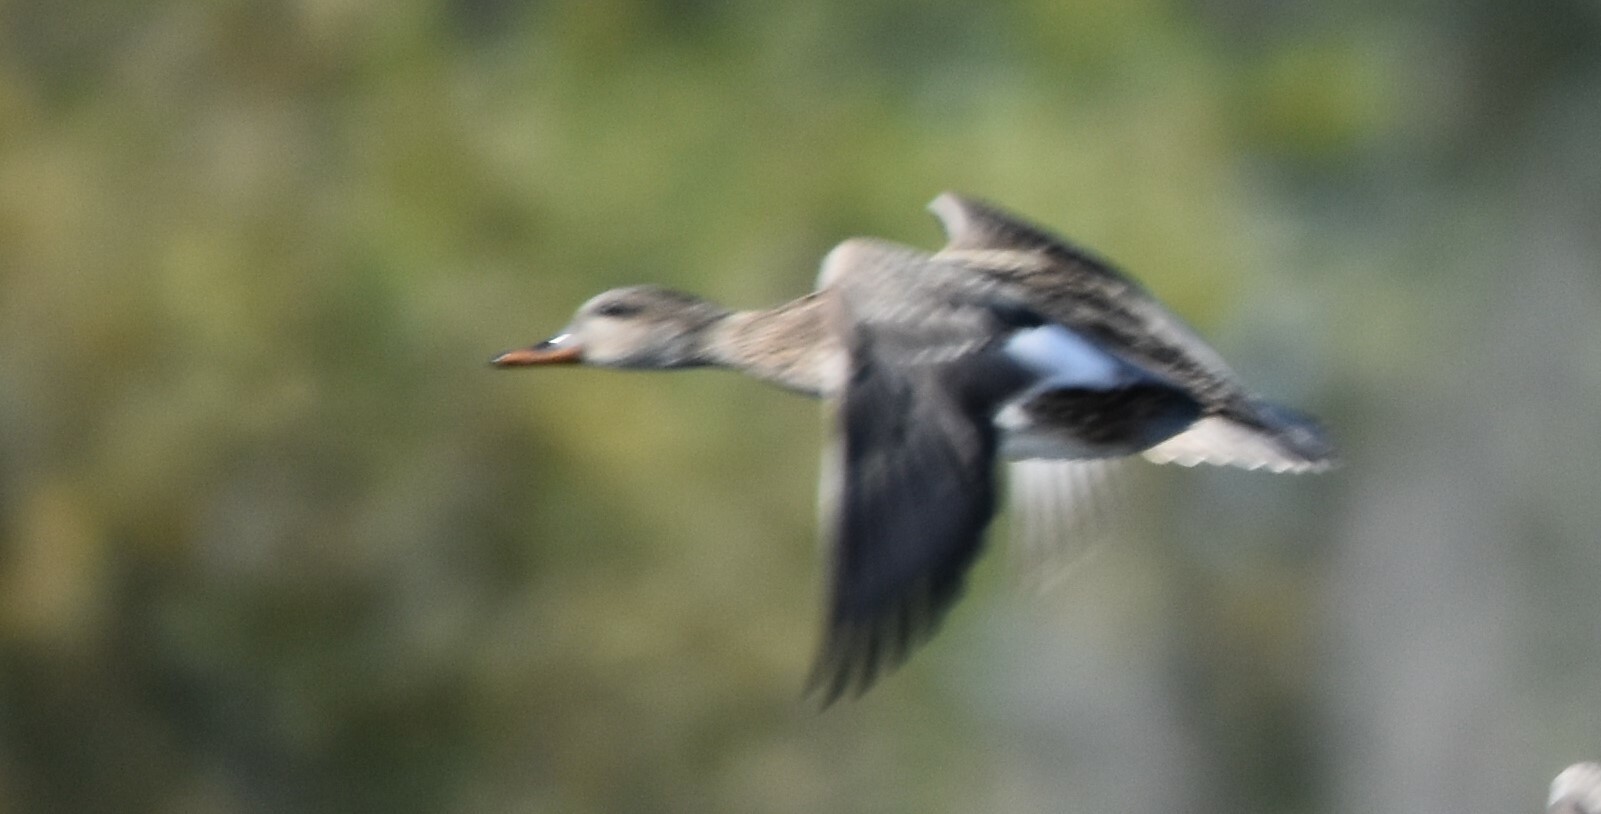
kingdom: Animalia
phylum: Chordata
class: Aves
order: Anseriformes
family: Anatidae
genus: Mareca
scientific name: Mareca strepera
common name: Gadwall
